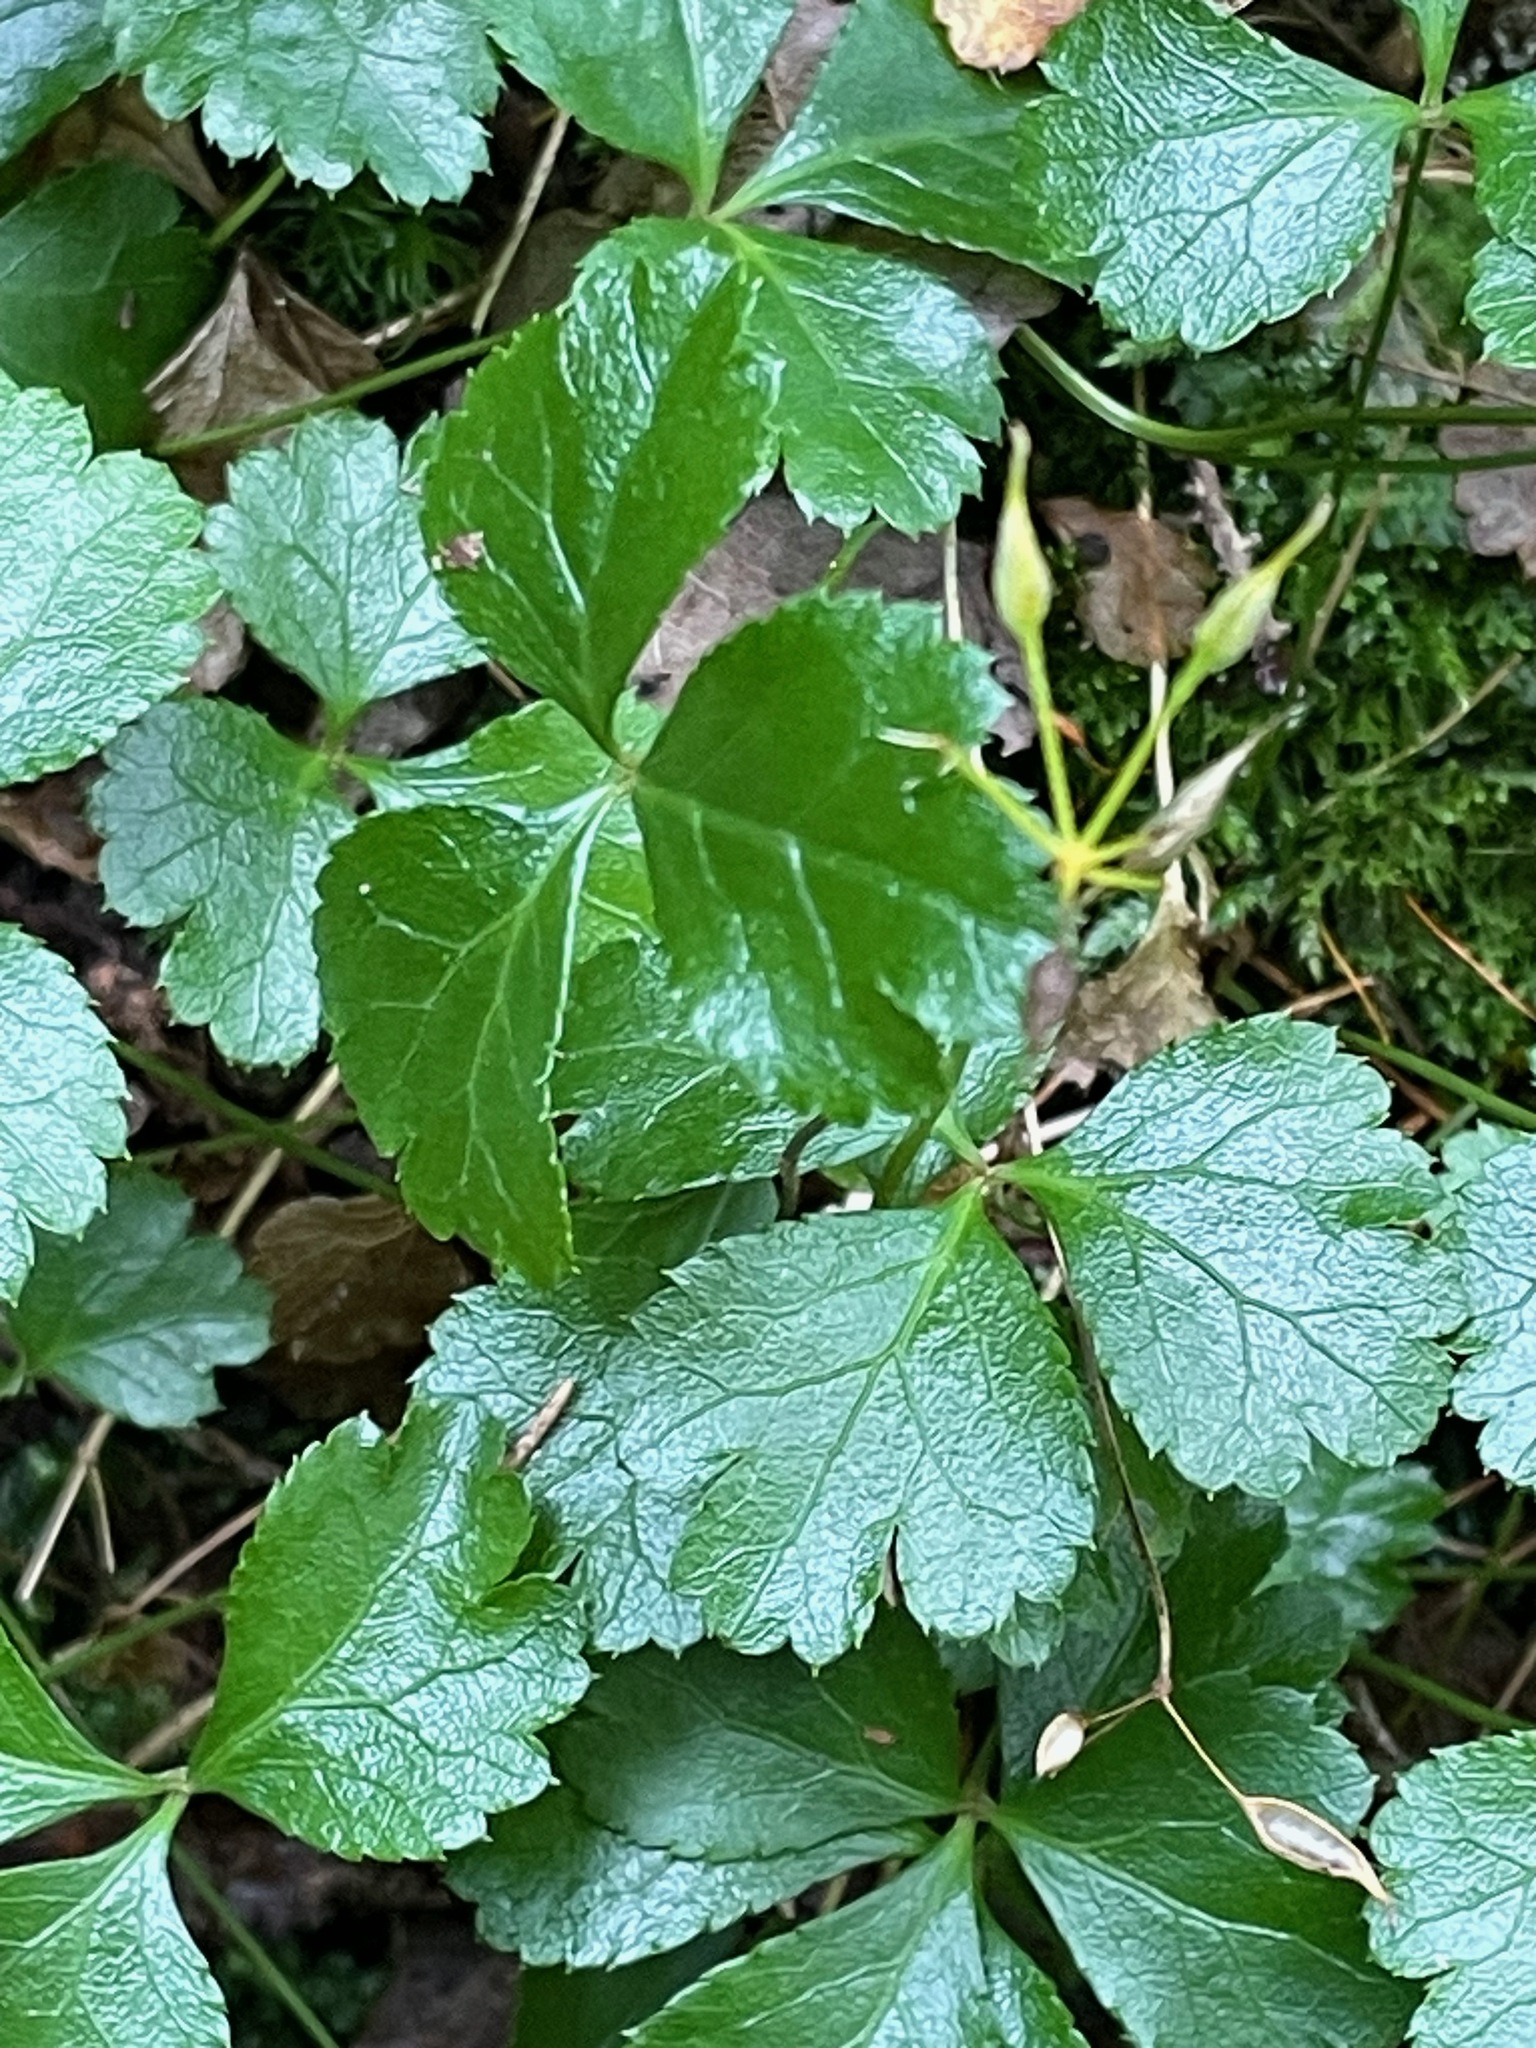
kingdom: Plantae
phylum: Tracheophyta
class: Magnoliopsida
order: Ranunculales
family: Ranunculaceae
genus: Coptis
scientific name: Coptis trifolia
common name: Canker-root
